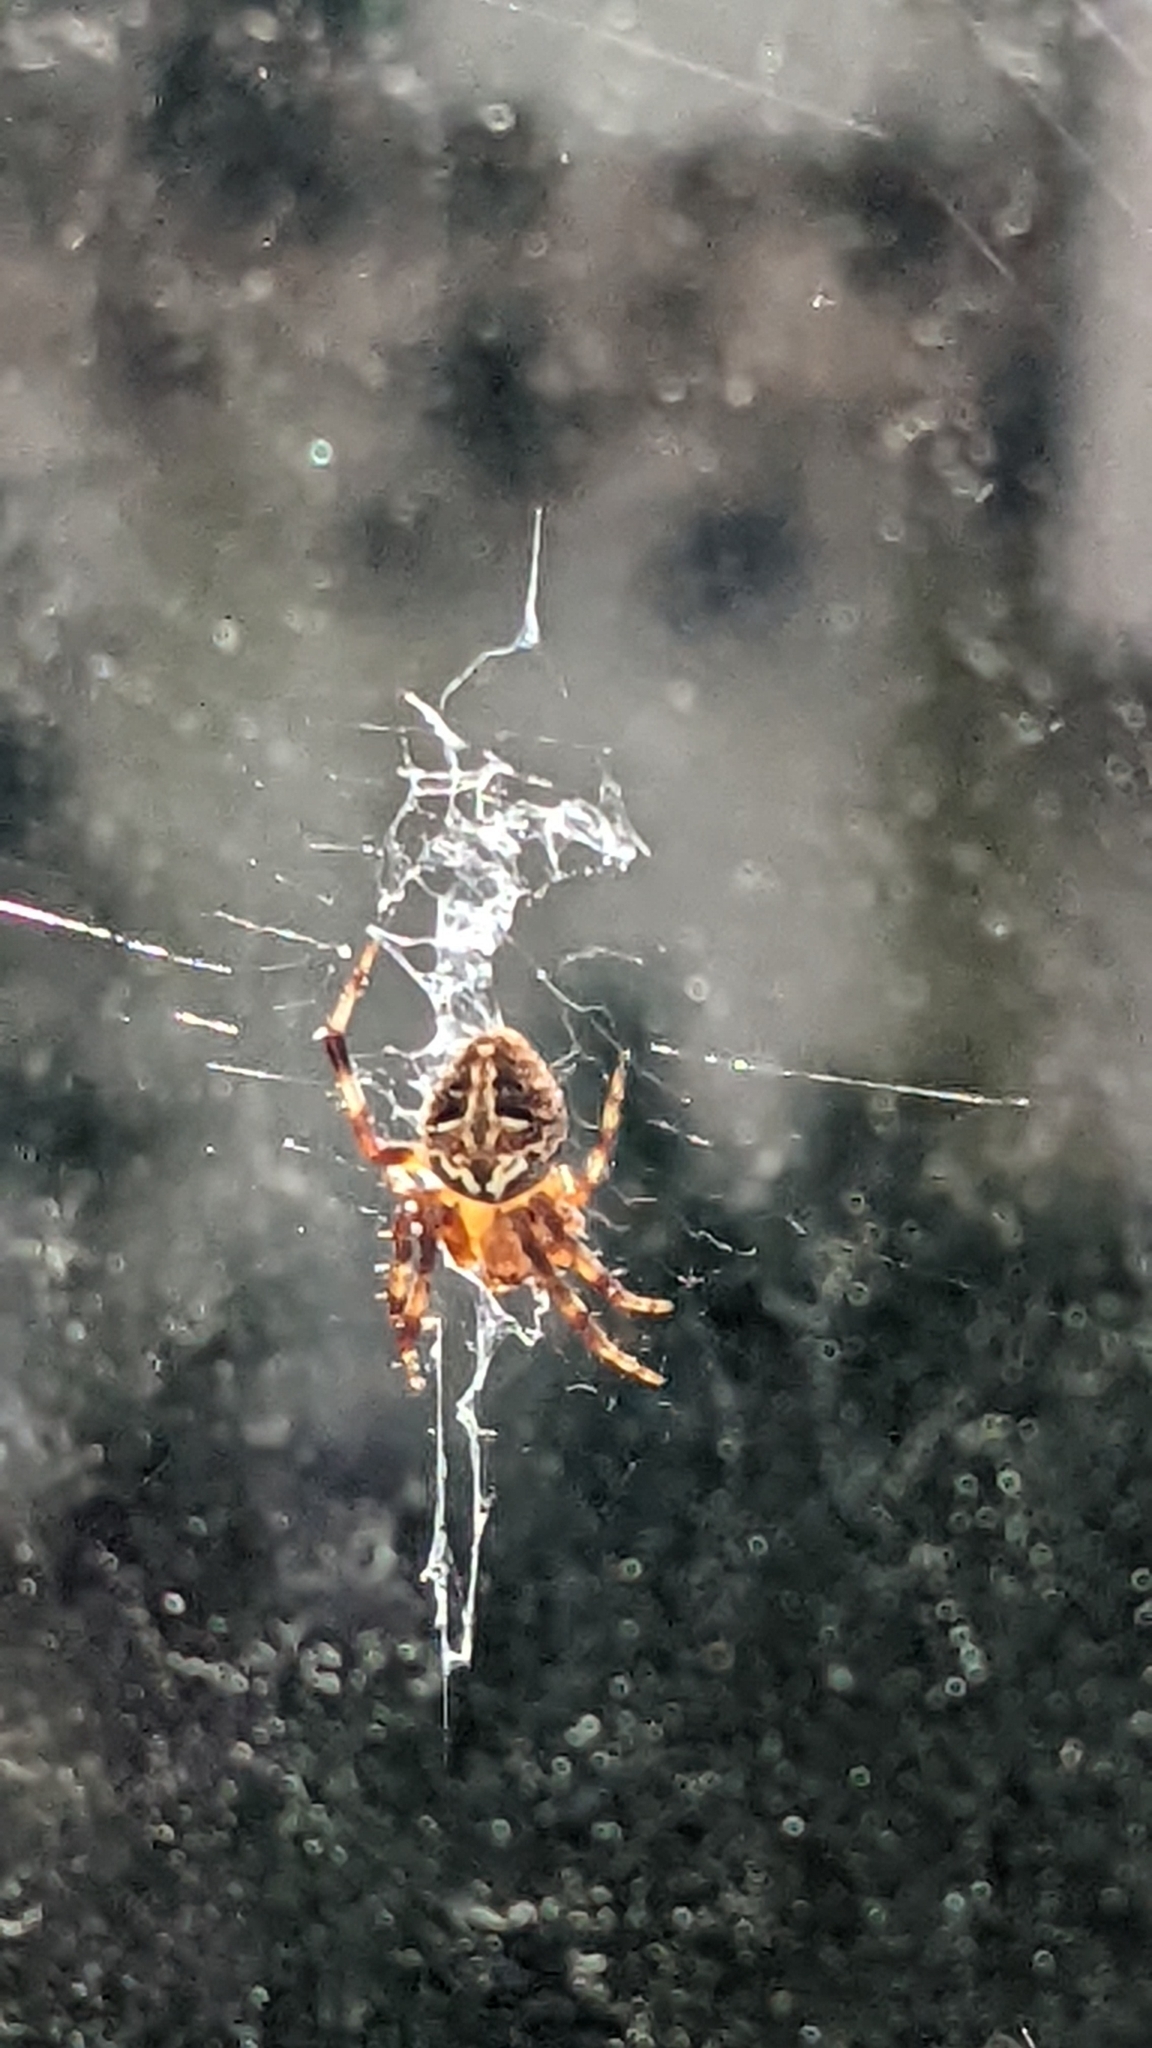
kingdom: Animalia
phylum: Arthropoda
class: Arachnida
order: Araneae
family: Araneidae
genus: Neoscona
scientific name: Neoscona domiciliorum
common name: Red-femured spotted orbweaver
